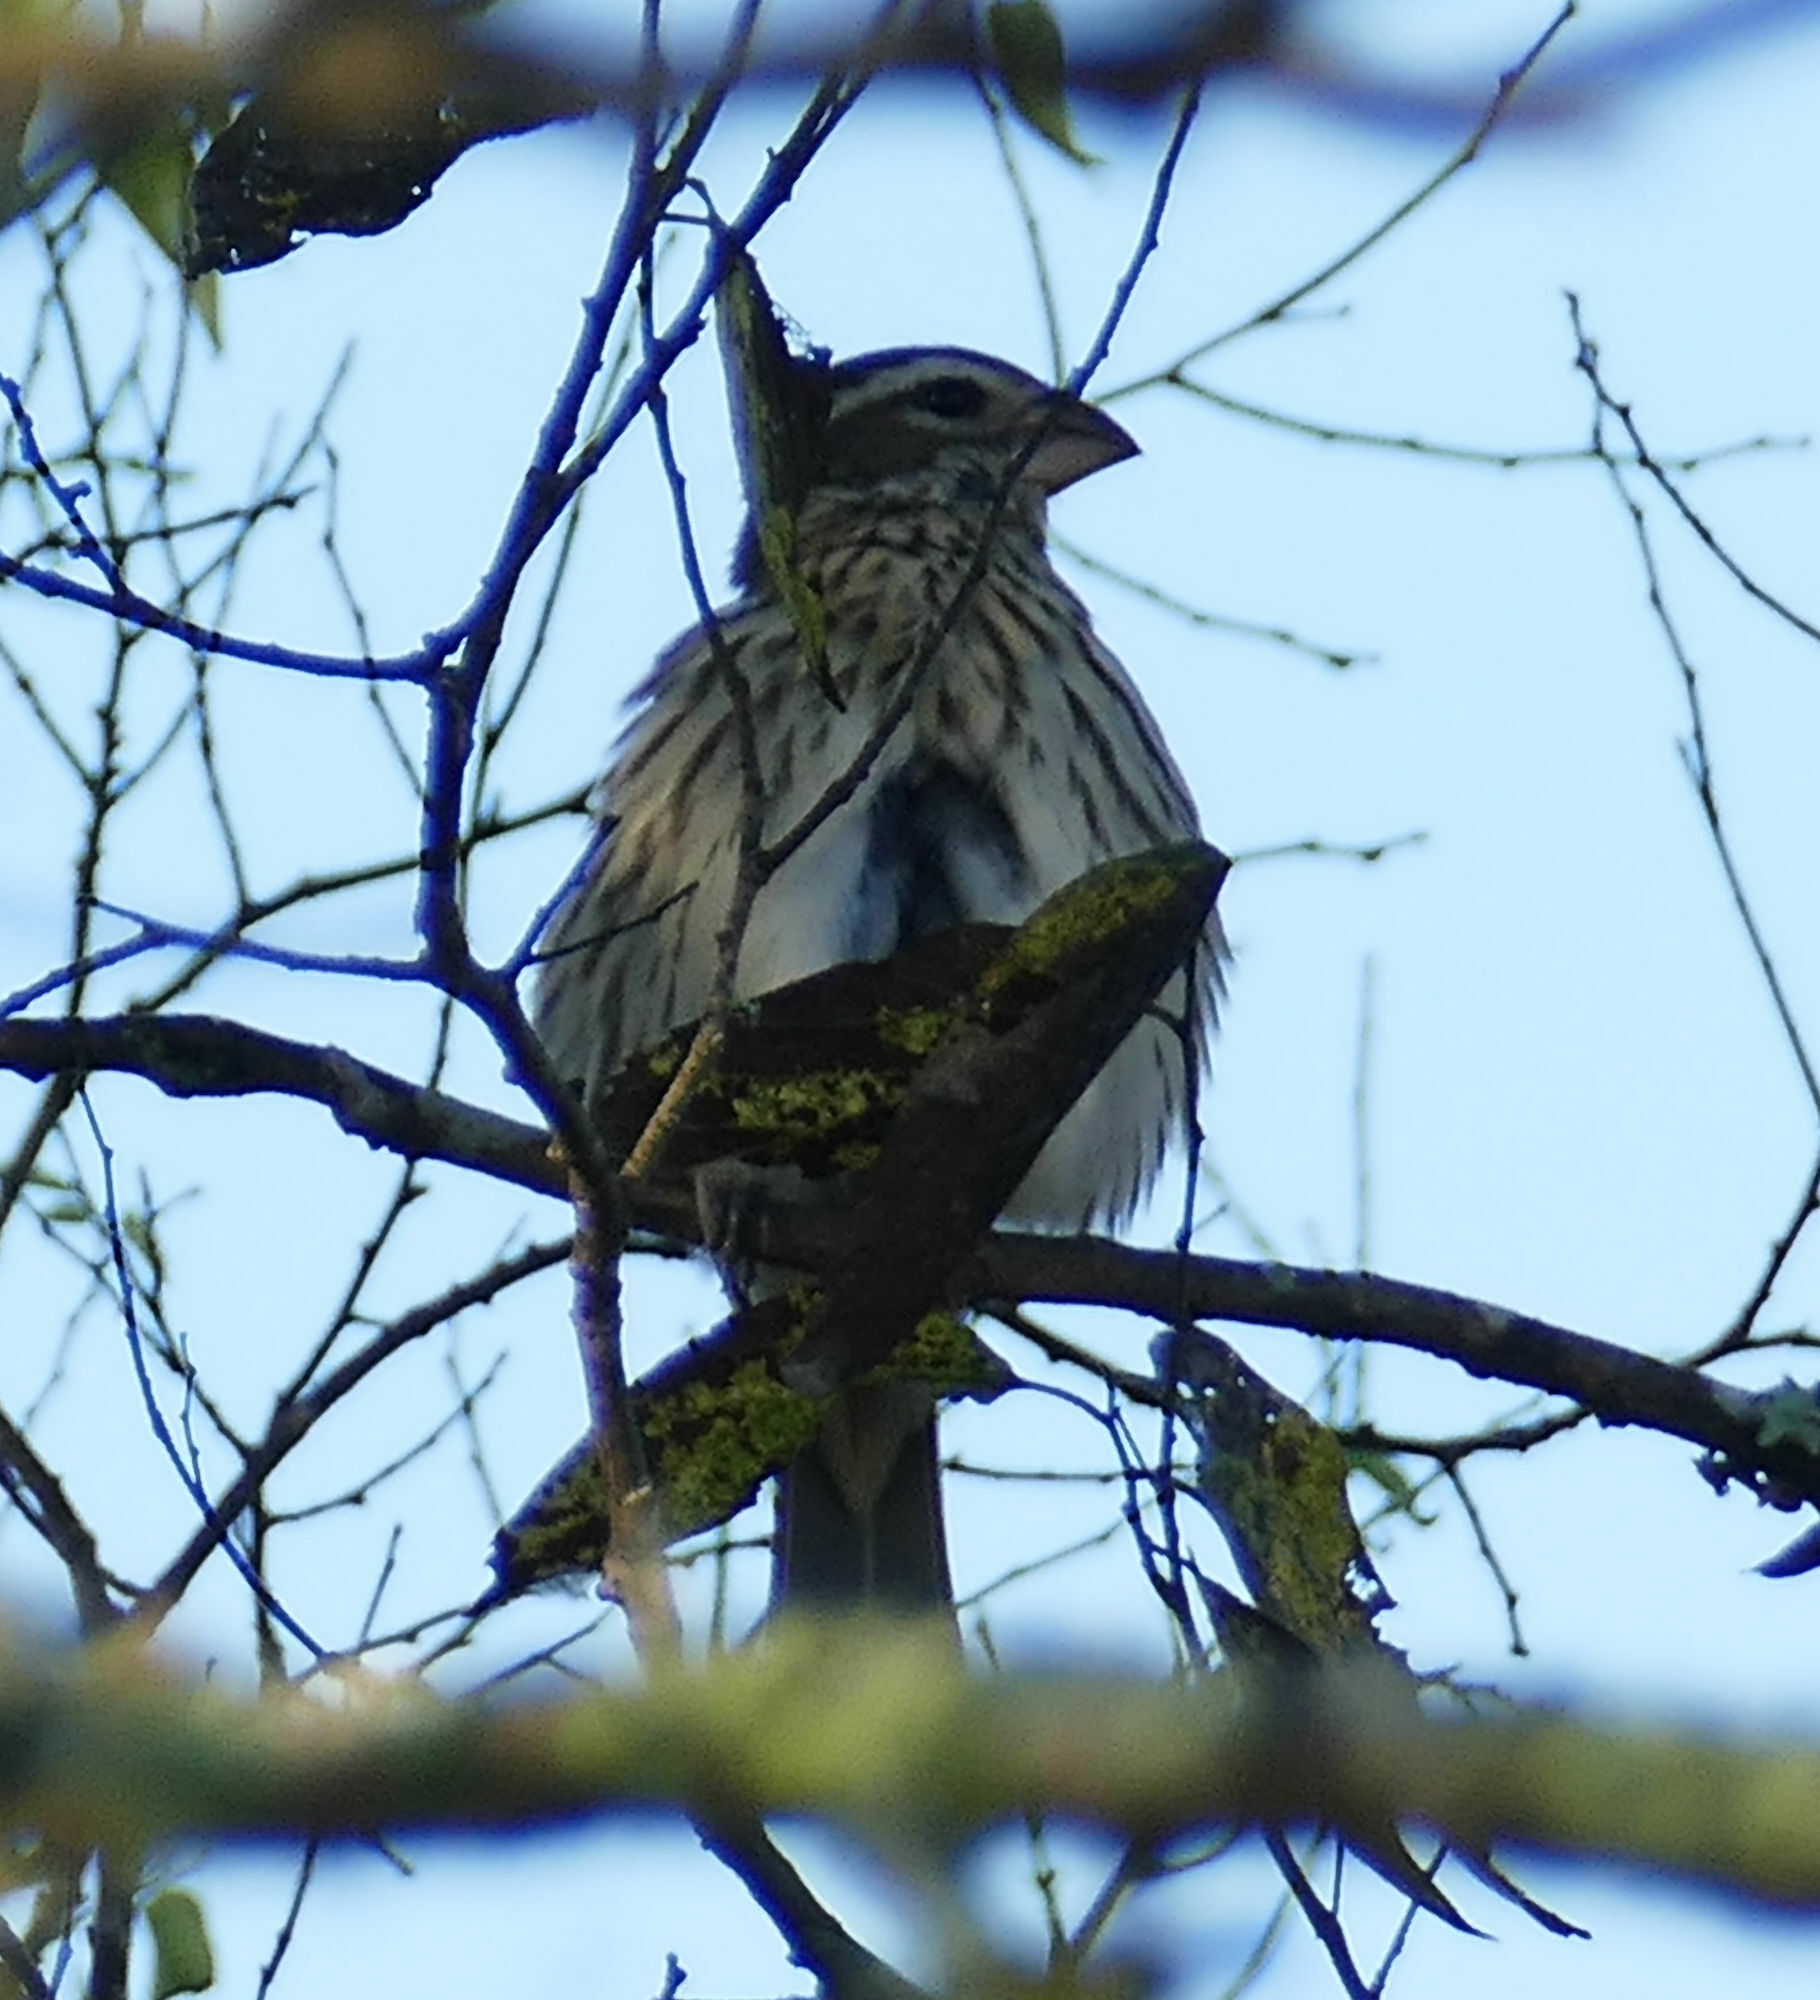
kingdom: Animalia
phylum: Chordata
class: Aves
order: Passeriformes
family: Cardinalidae
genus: Pheucticus
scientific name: Pheucticus ludovicianus
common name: Rose-breasted grosbeak
